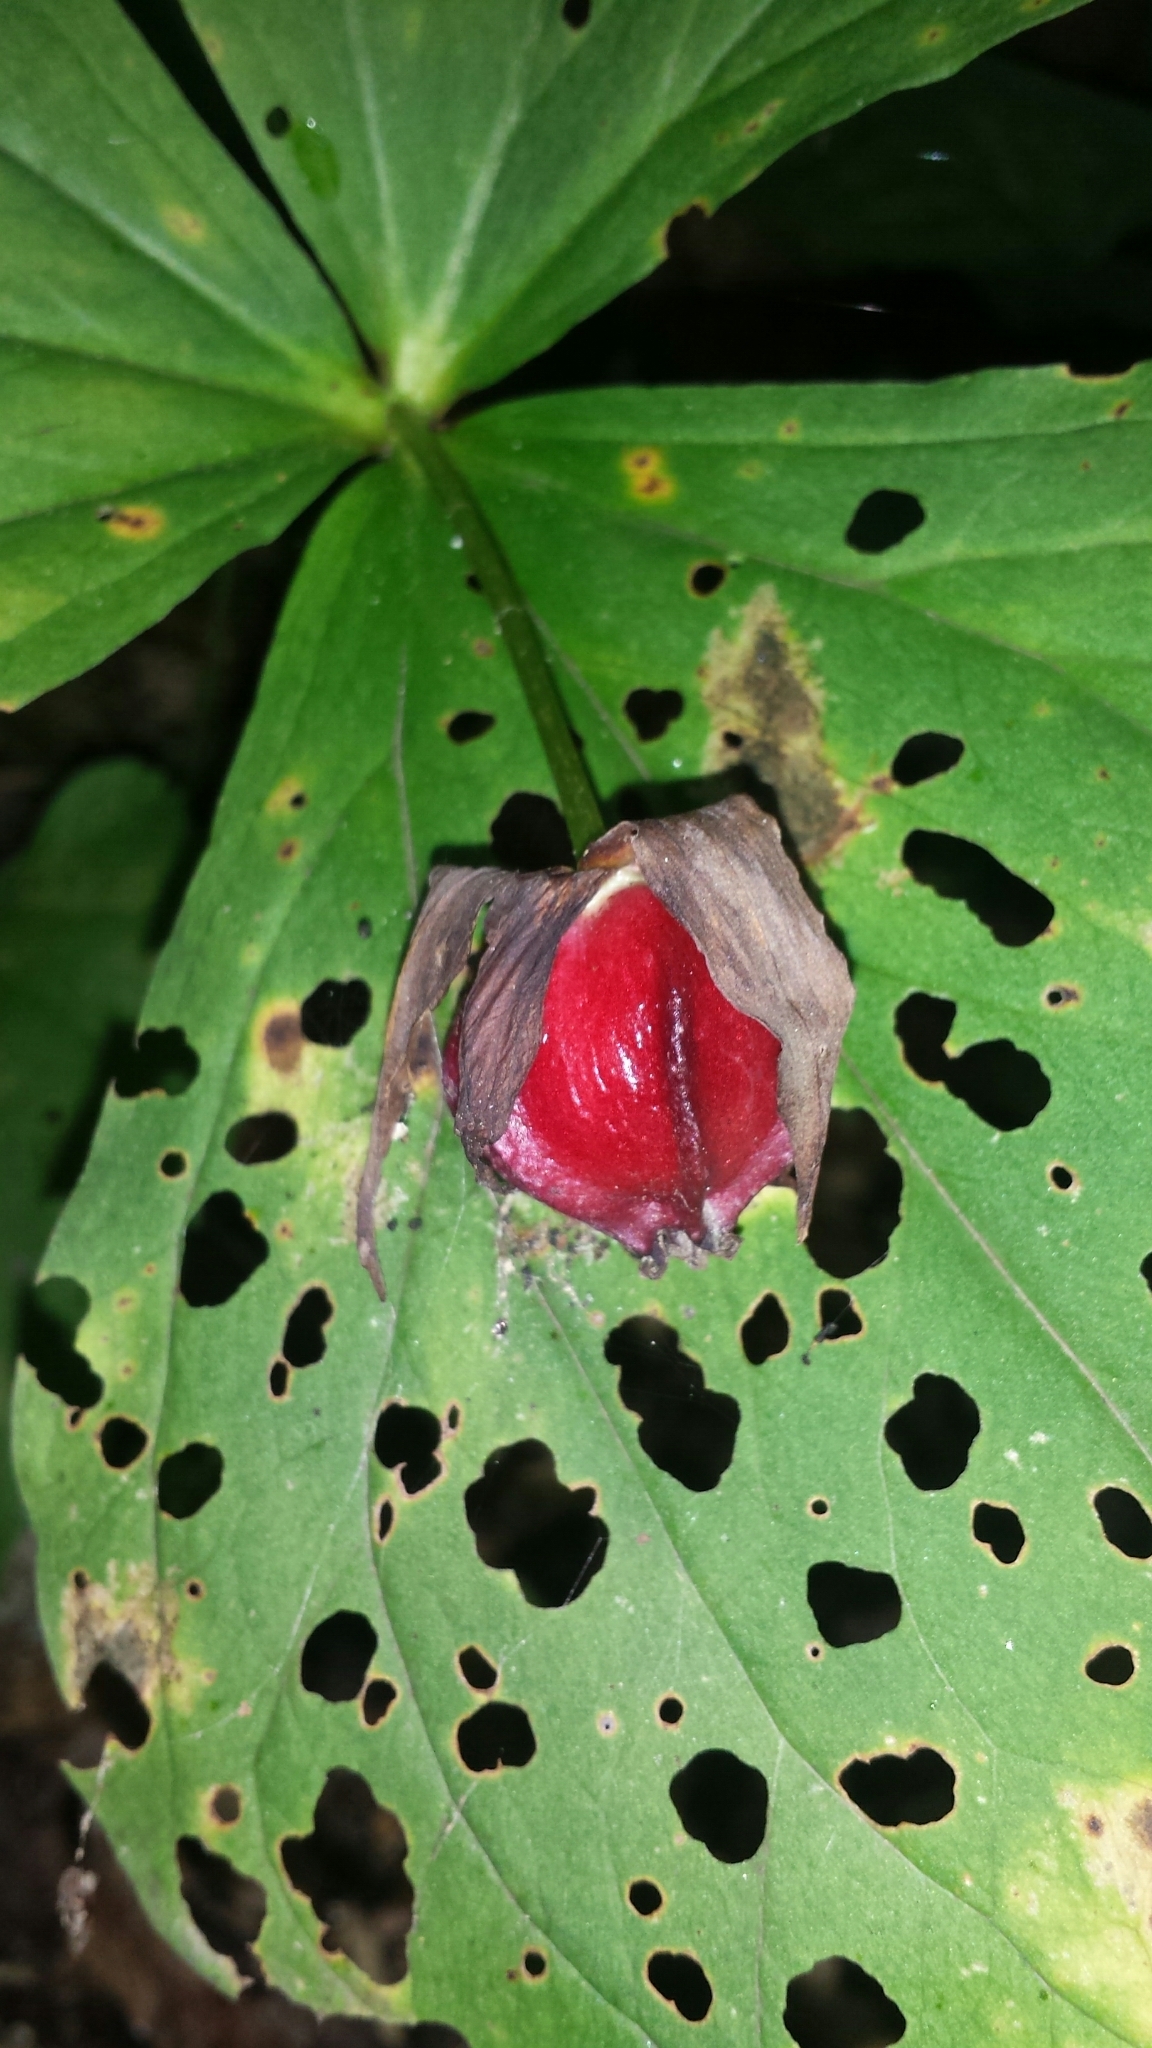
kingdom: Plantae
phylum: Tracheophyta
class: Liliopsida
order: Liliales
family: Melanthiaceae
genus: Trillium
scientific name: Trillium erectum
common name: Purple trillium
